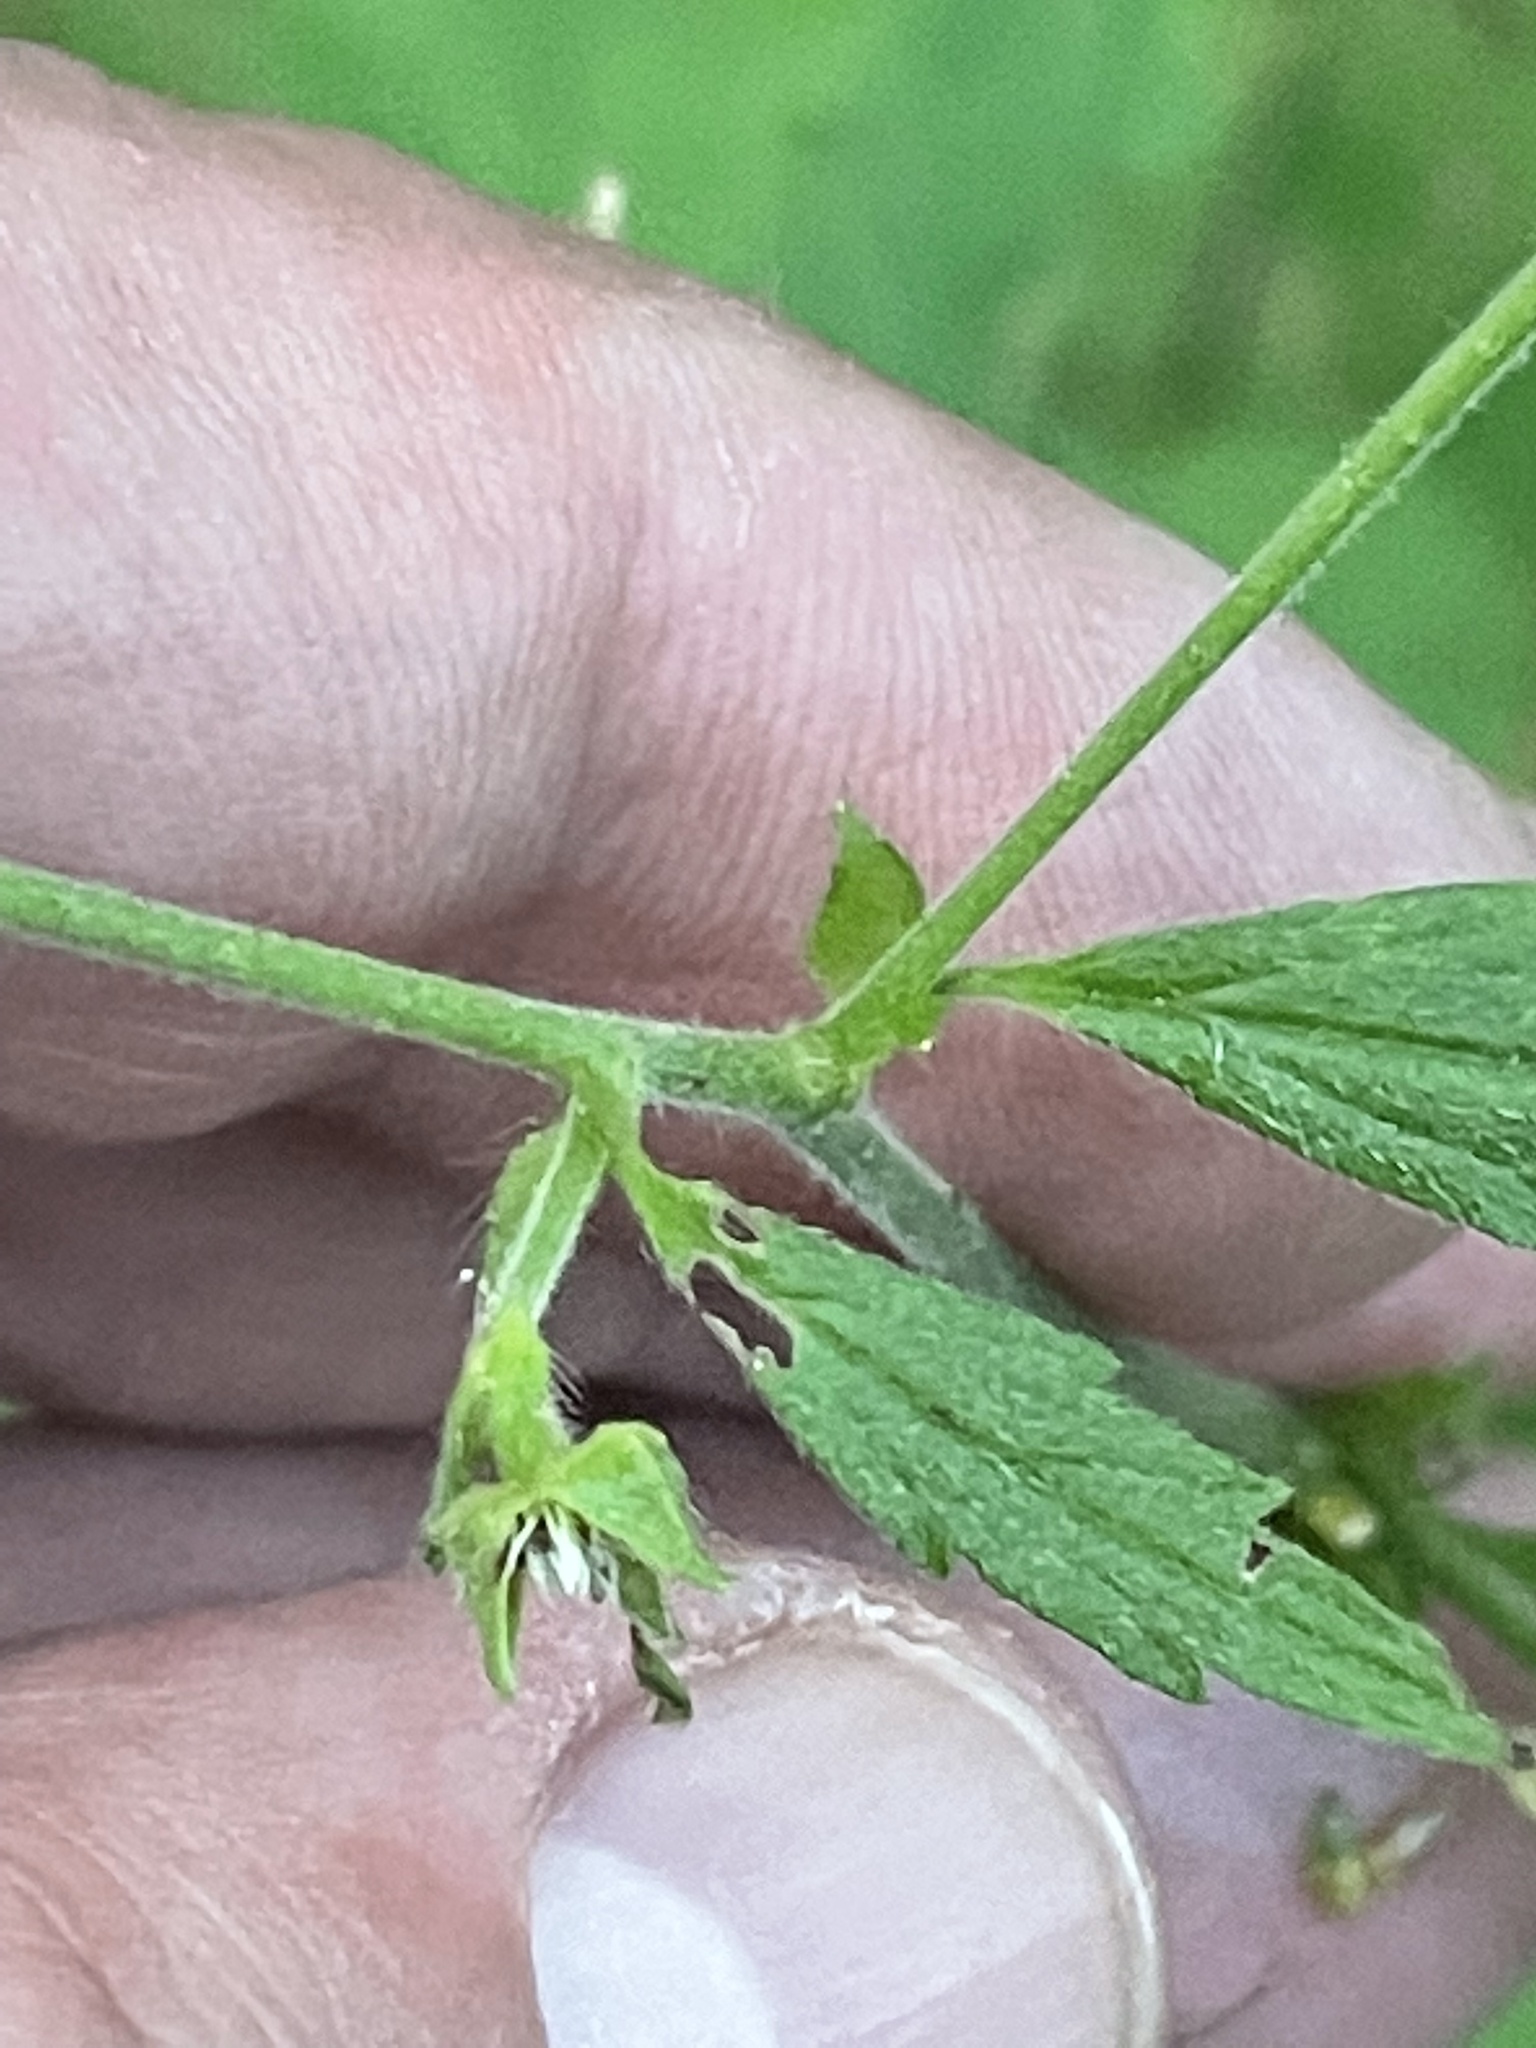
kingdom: Plantae
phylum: Tracheophyta
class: Magnoliopsida
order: Rosales
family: Rosaceae
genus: Geum
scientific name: Geum canadense
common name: White avens
